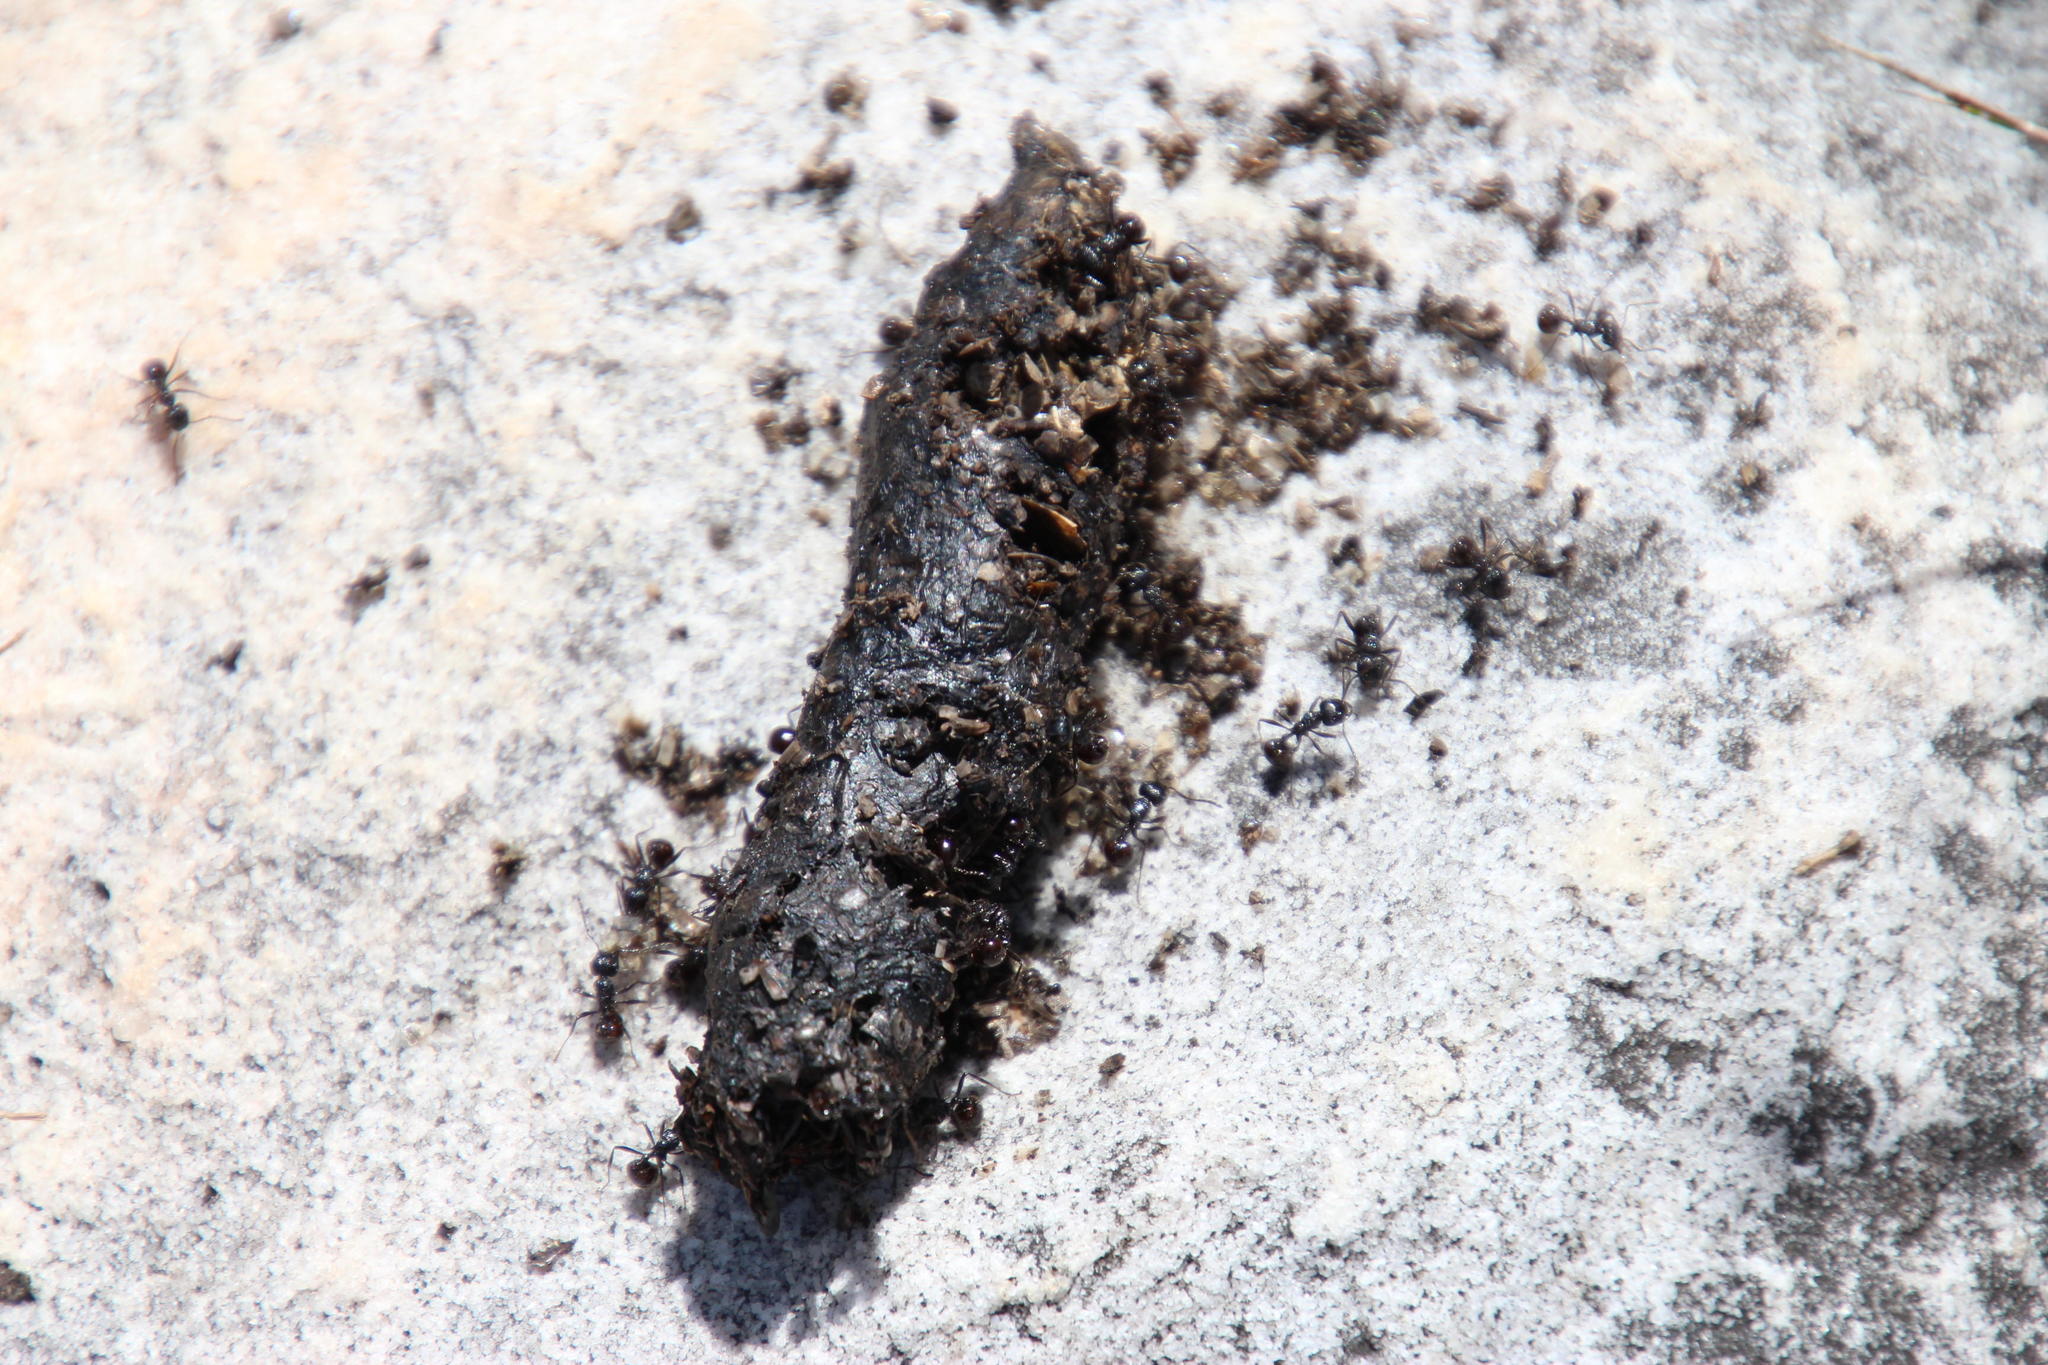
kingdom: Animalia
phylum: Arthropoda
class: Insecta
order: Hymenoptera
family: Formicidae
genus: Myrmicaria
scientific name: Myrmicaria nigra
